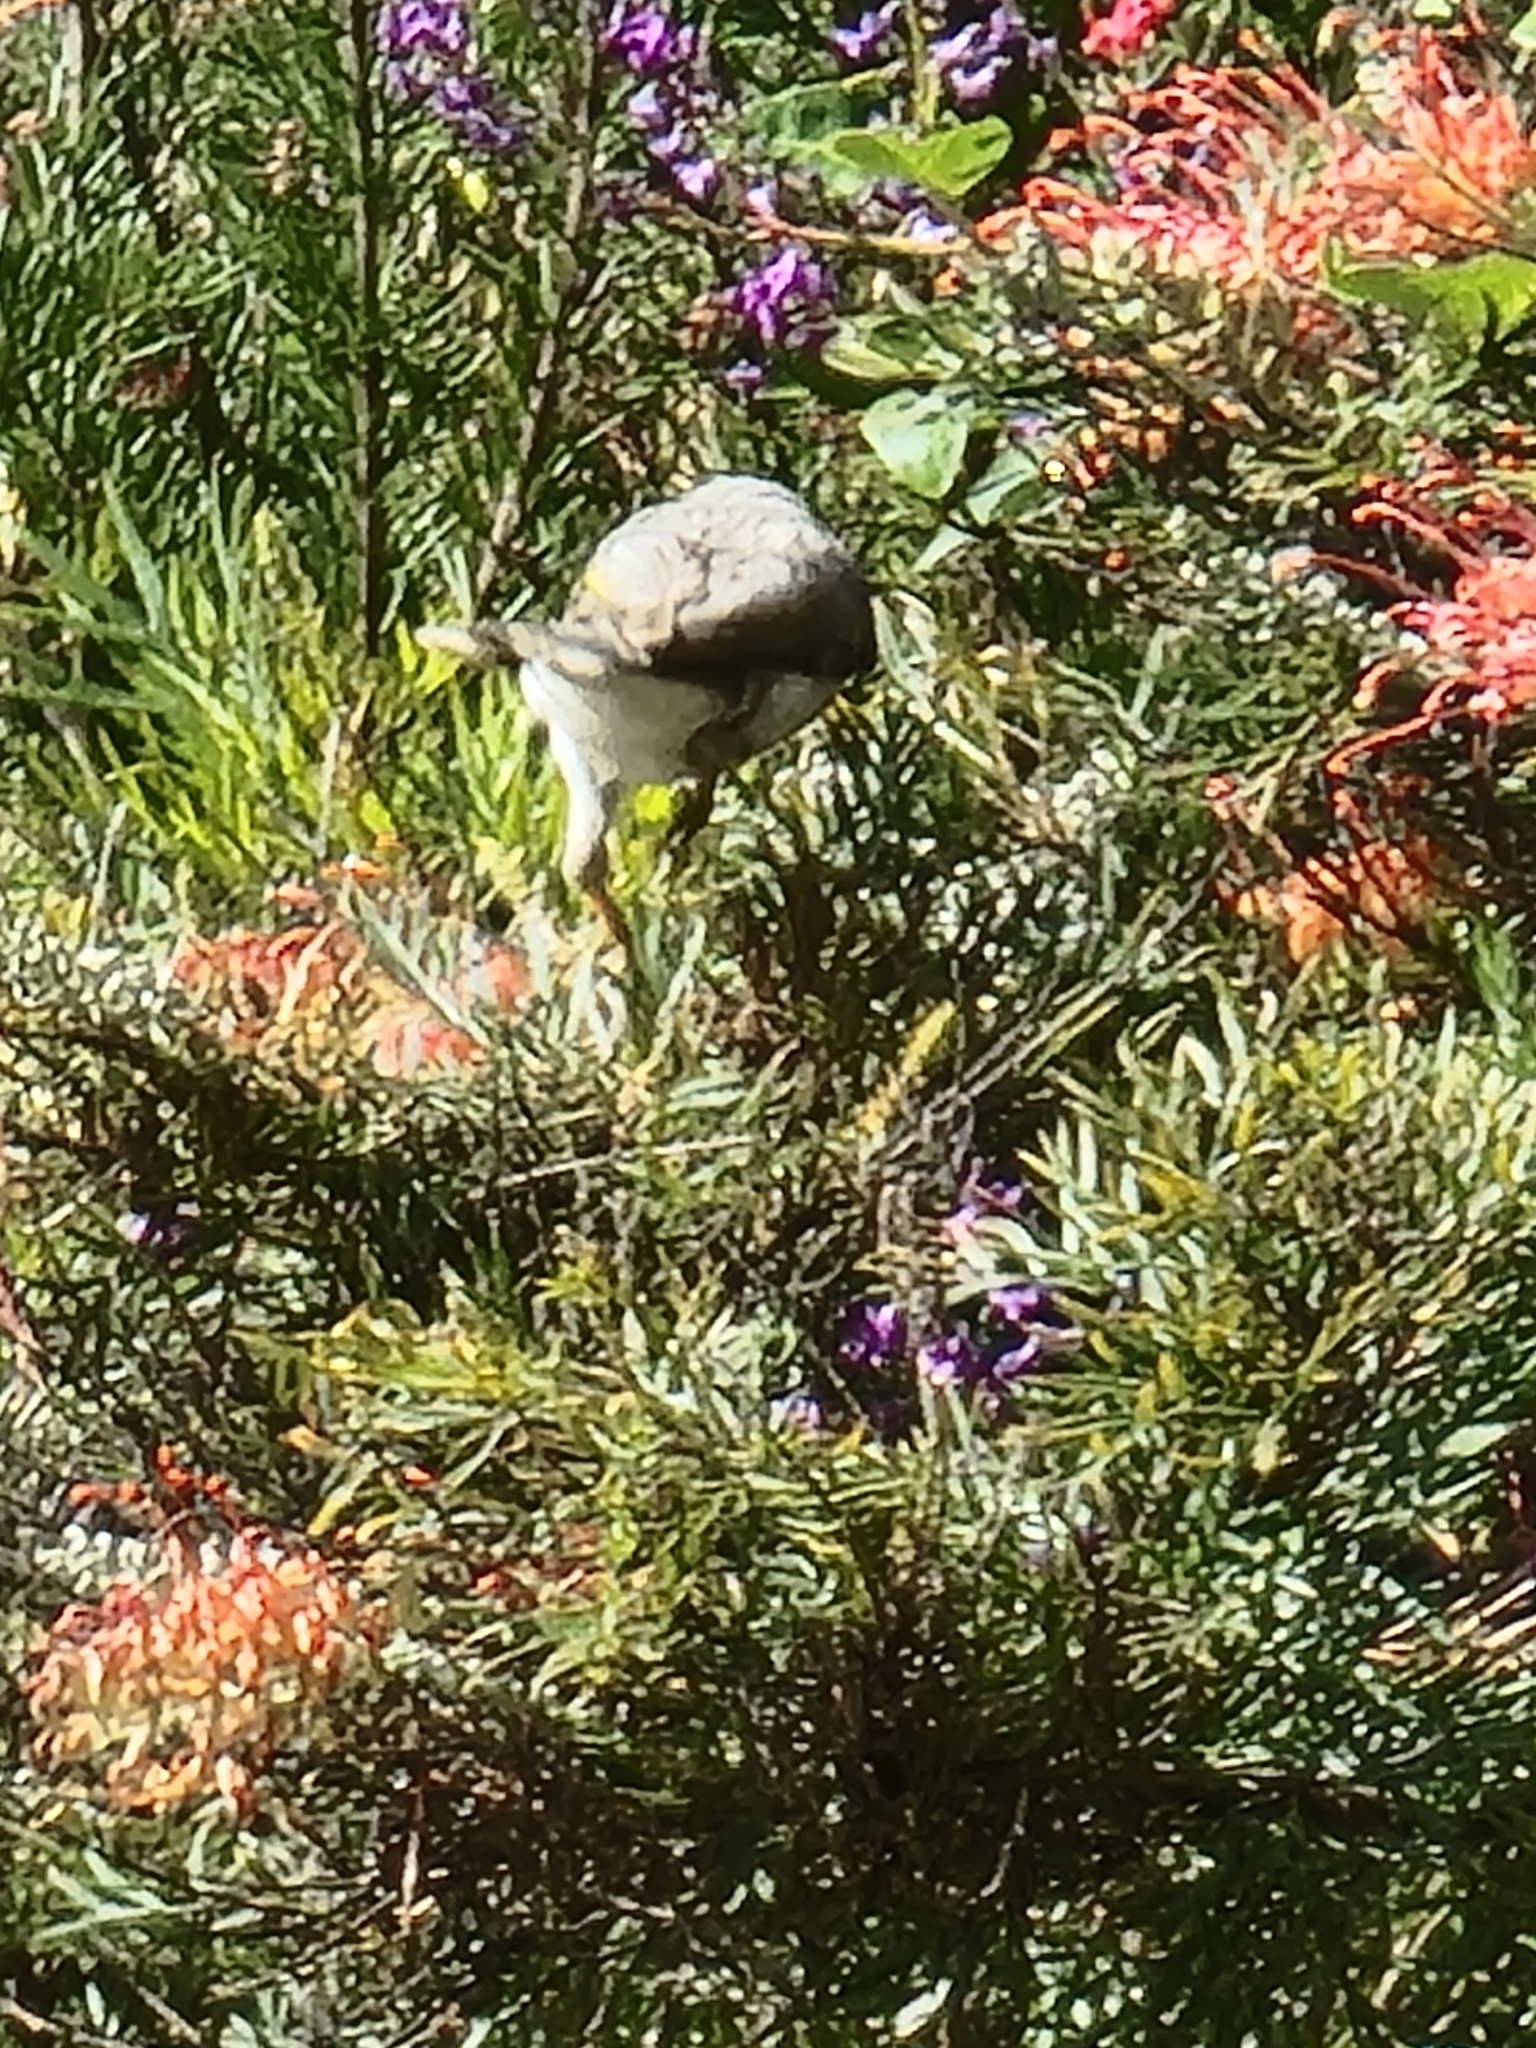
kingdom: Animalia
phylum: Chordata
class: Aves
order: Passeriformes
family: Meliphagidae
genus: Manorina
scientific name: Manorina melanocephala
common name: Noisy miner
